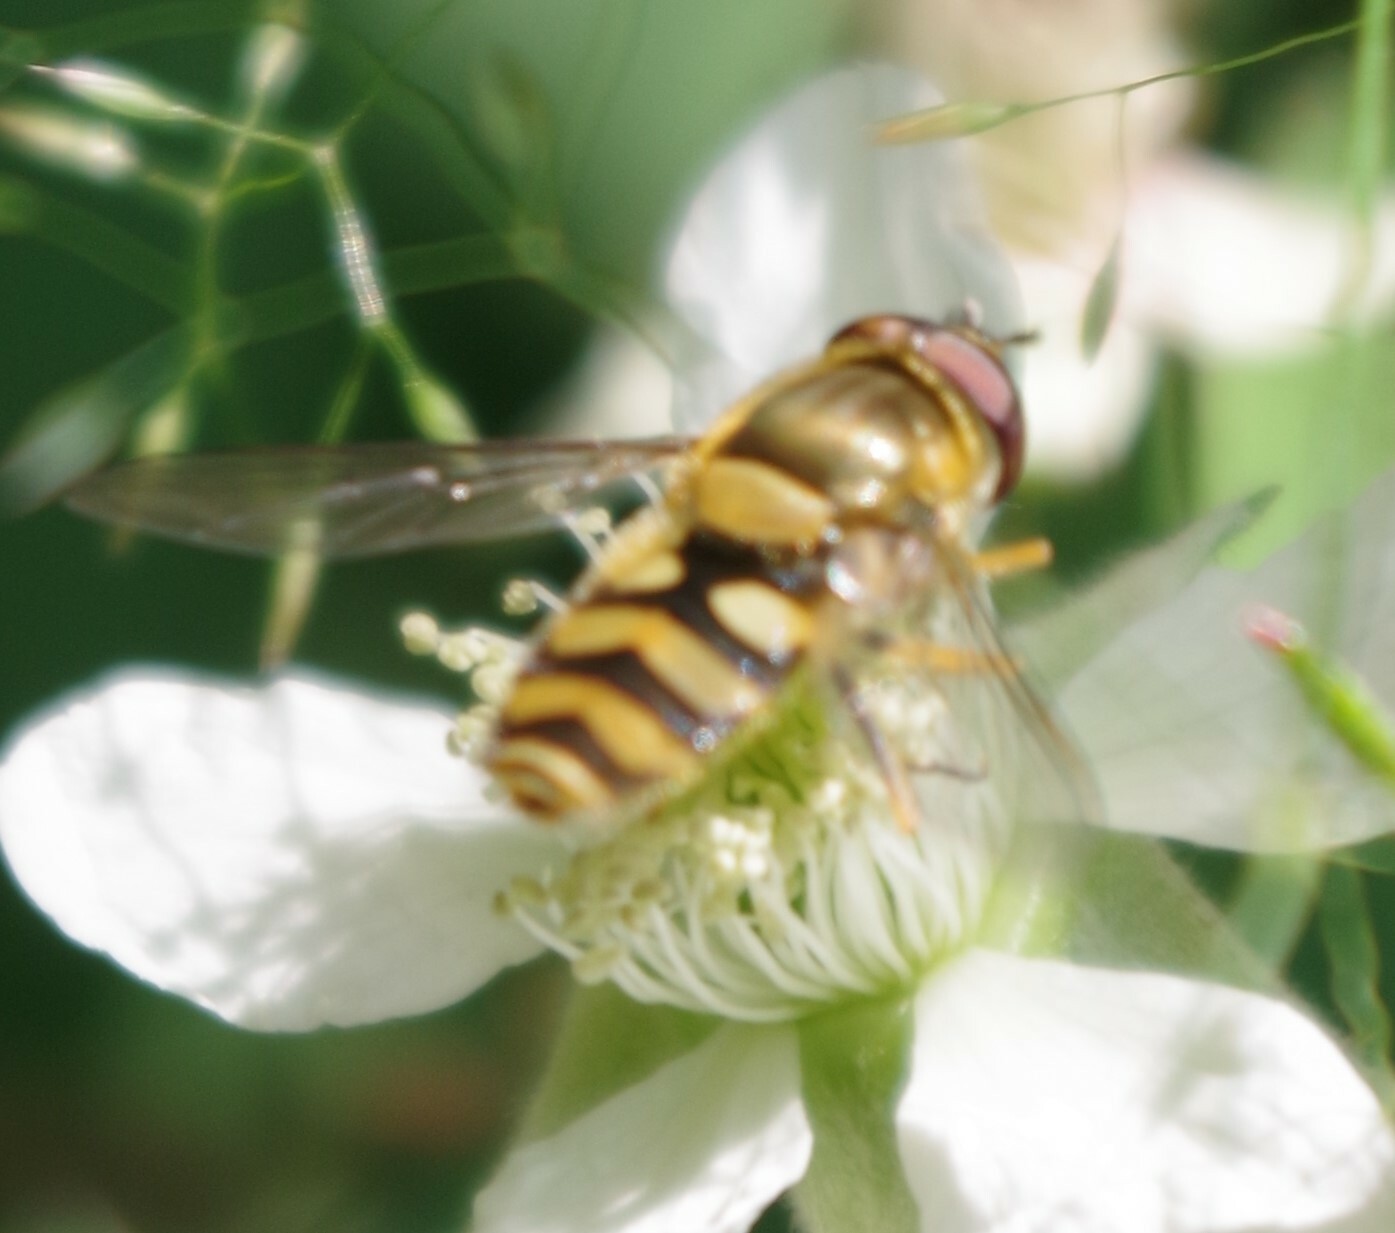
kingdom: Animalia
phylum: Arthropoda
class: Insecta
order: Diptera
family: Syrphidae
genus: Syrphus
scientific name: Syrphus
